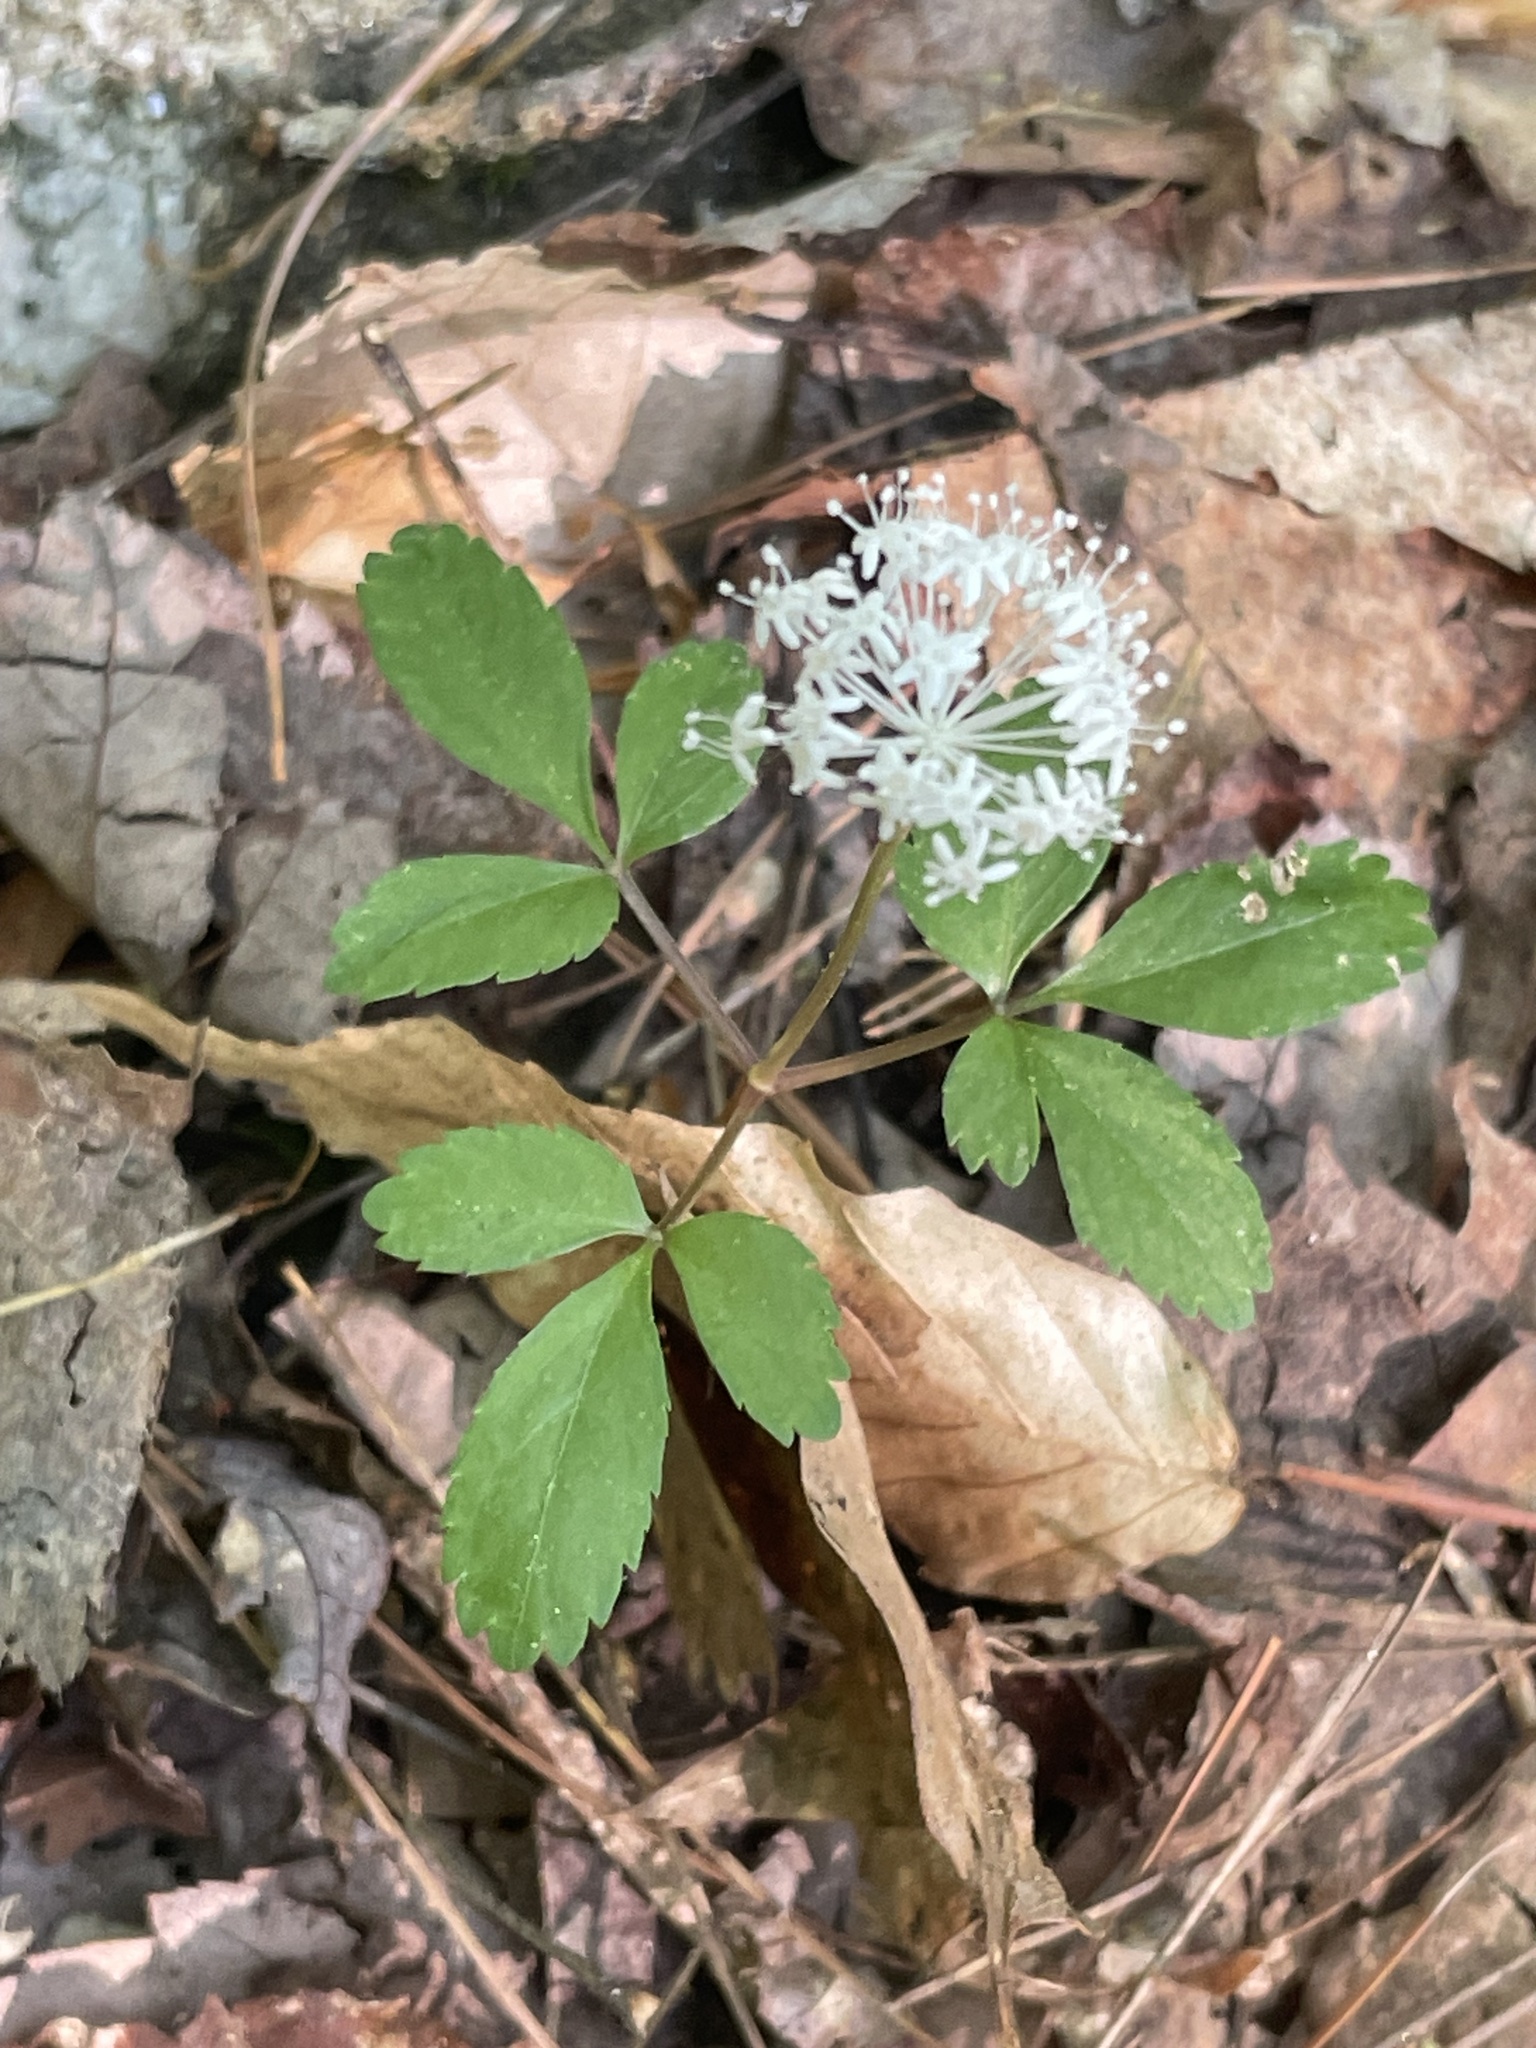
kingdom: Plantae
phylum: Tracheophyta
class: Magnoliopsida
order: Apiales
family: Araliaceae
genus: Panax
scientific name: Panax trifolius
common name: Dwarf ginseng
